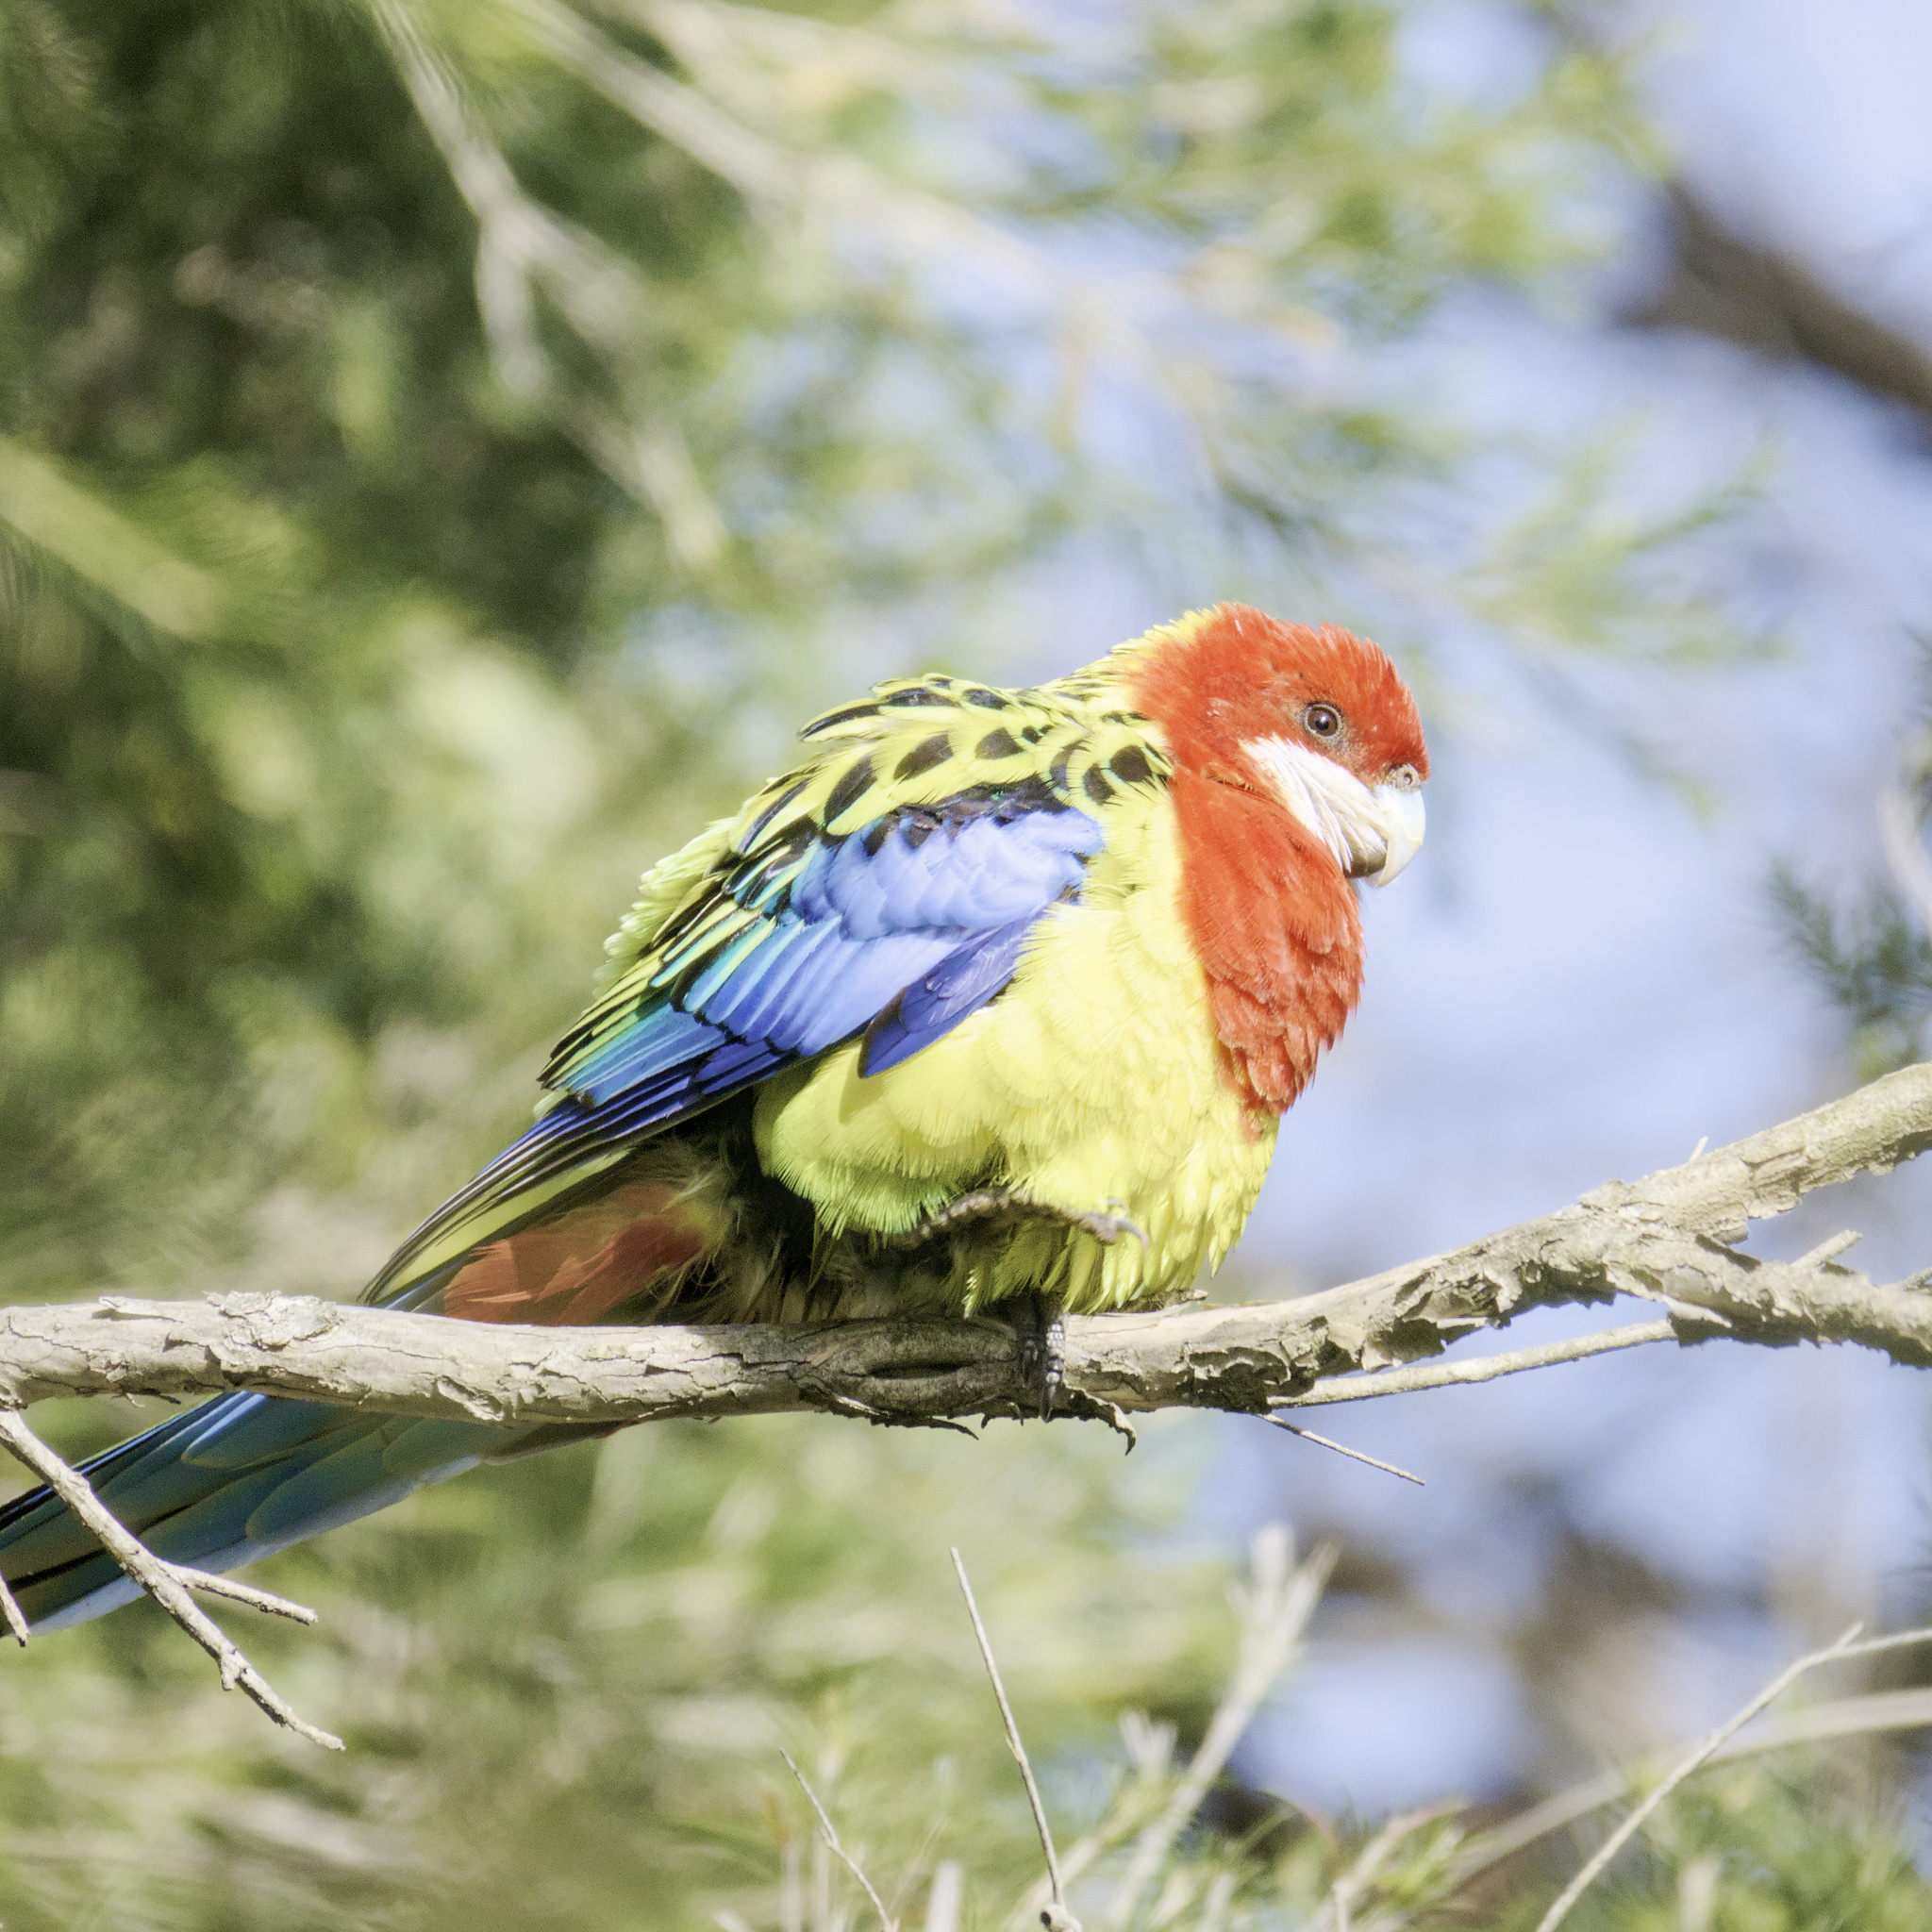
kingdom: Animalia
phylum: Chordata
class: Aves
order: Psittaciformes
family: Psittacidae
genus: Platycercus
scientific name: Platycercus eximius
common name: Eastern rosella
